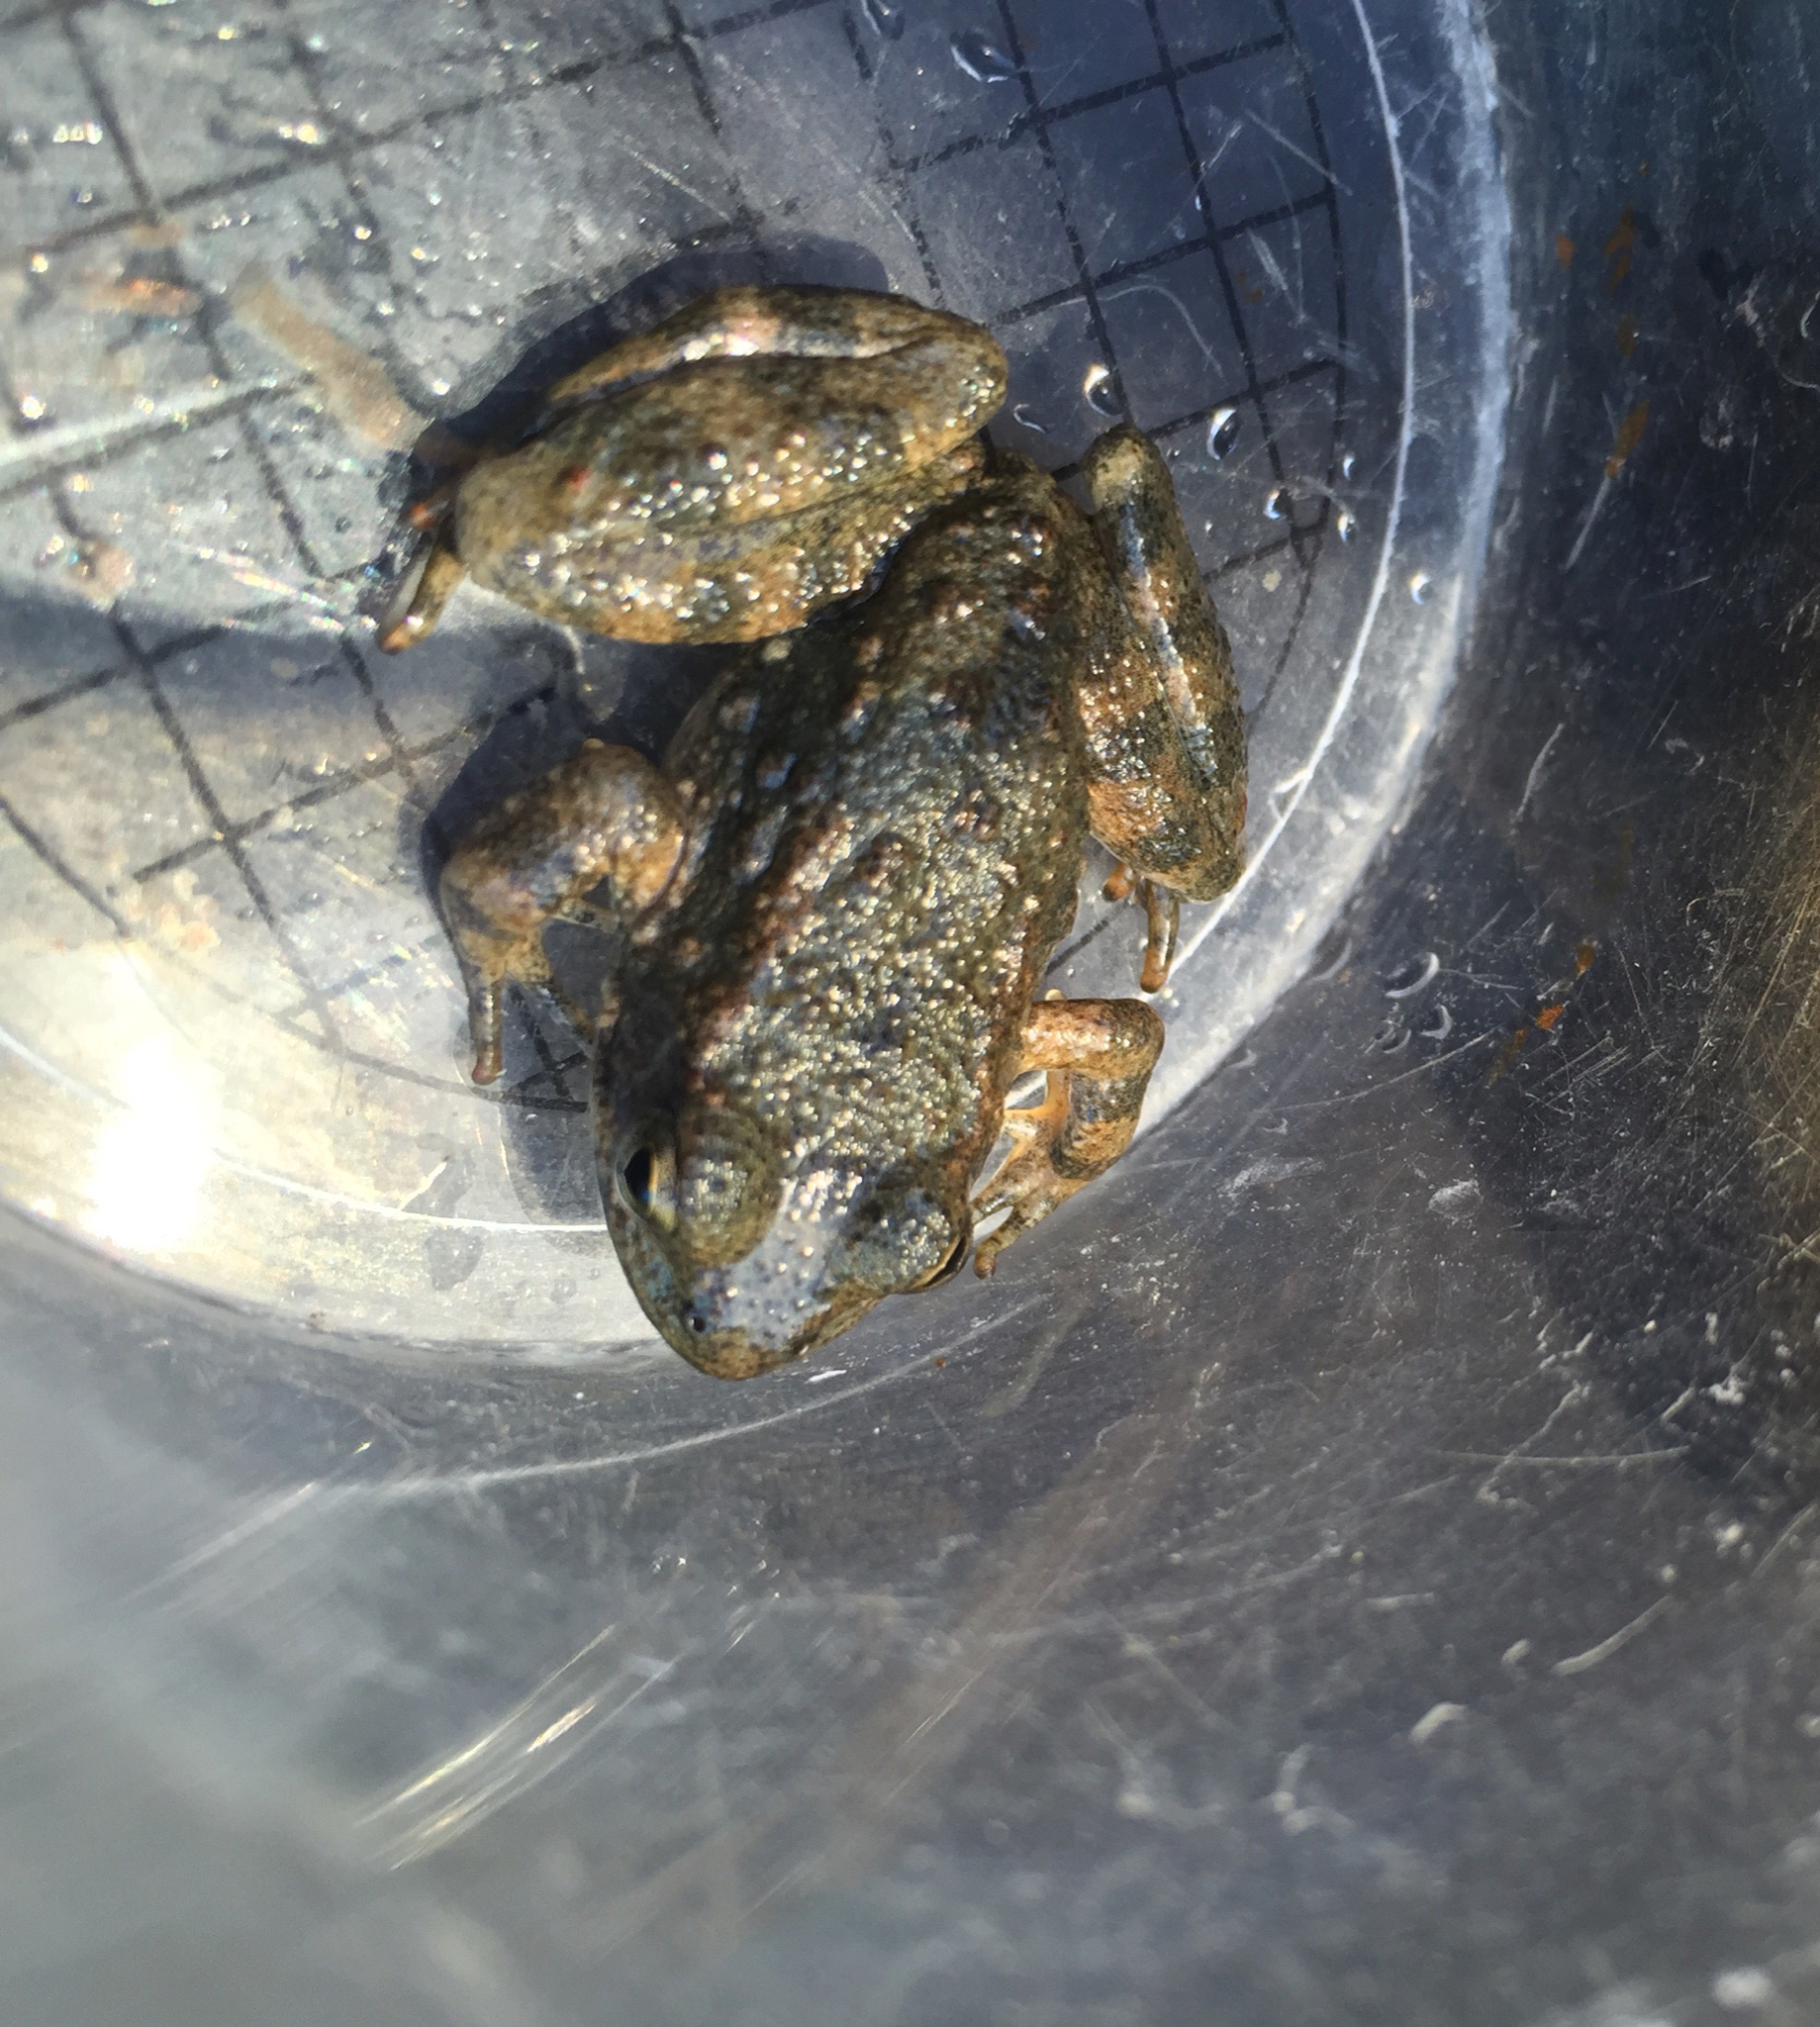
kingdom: Animalia
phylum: Chordata
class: Amphibia
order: Anura
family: Ranidae
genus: Rana
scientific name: Rana boylii
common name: Foothill yellow-legged frog
